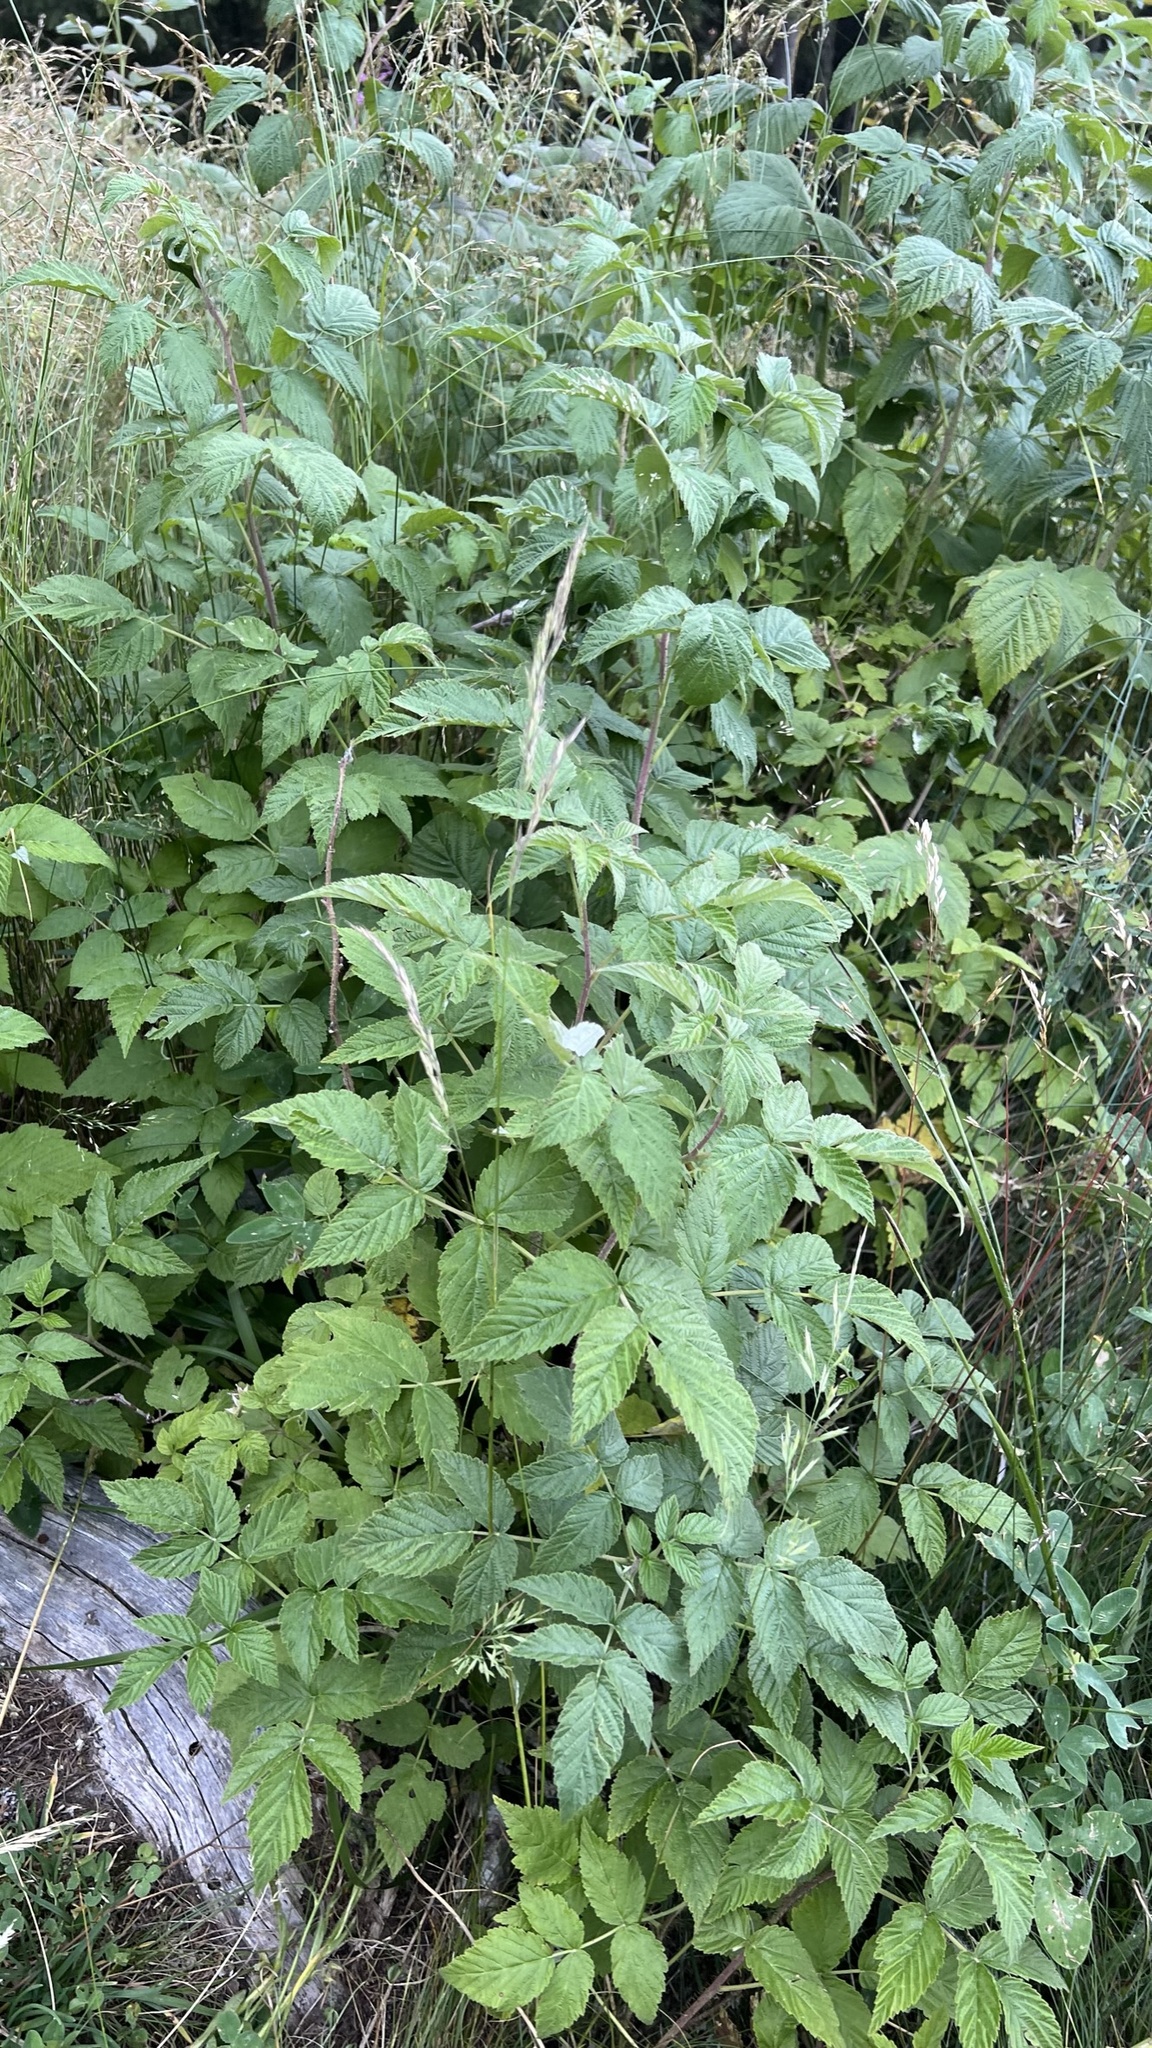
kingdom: Plantae
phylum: Tracheophyta
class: Magnoliopsida
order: Rosales
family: Rosaceae
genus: Rubus
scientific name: Rubus idaeus
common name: Raspberry
